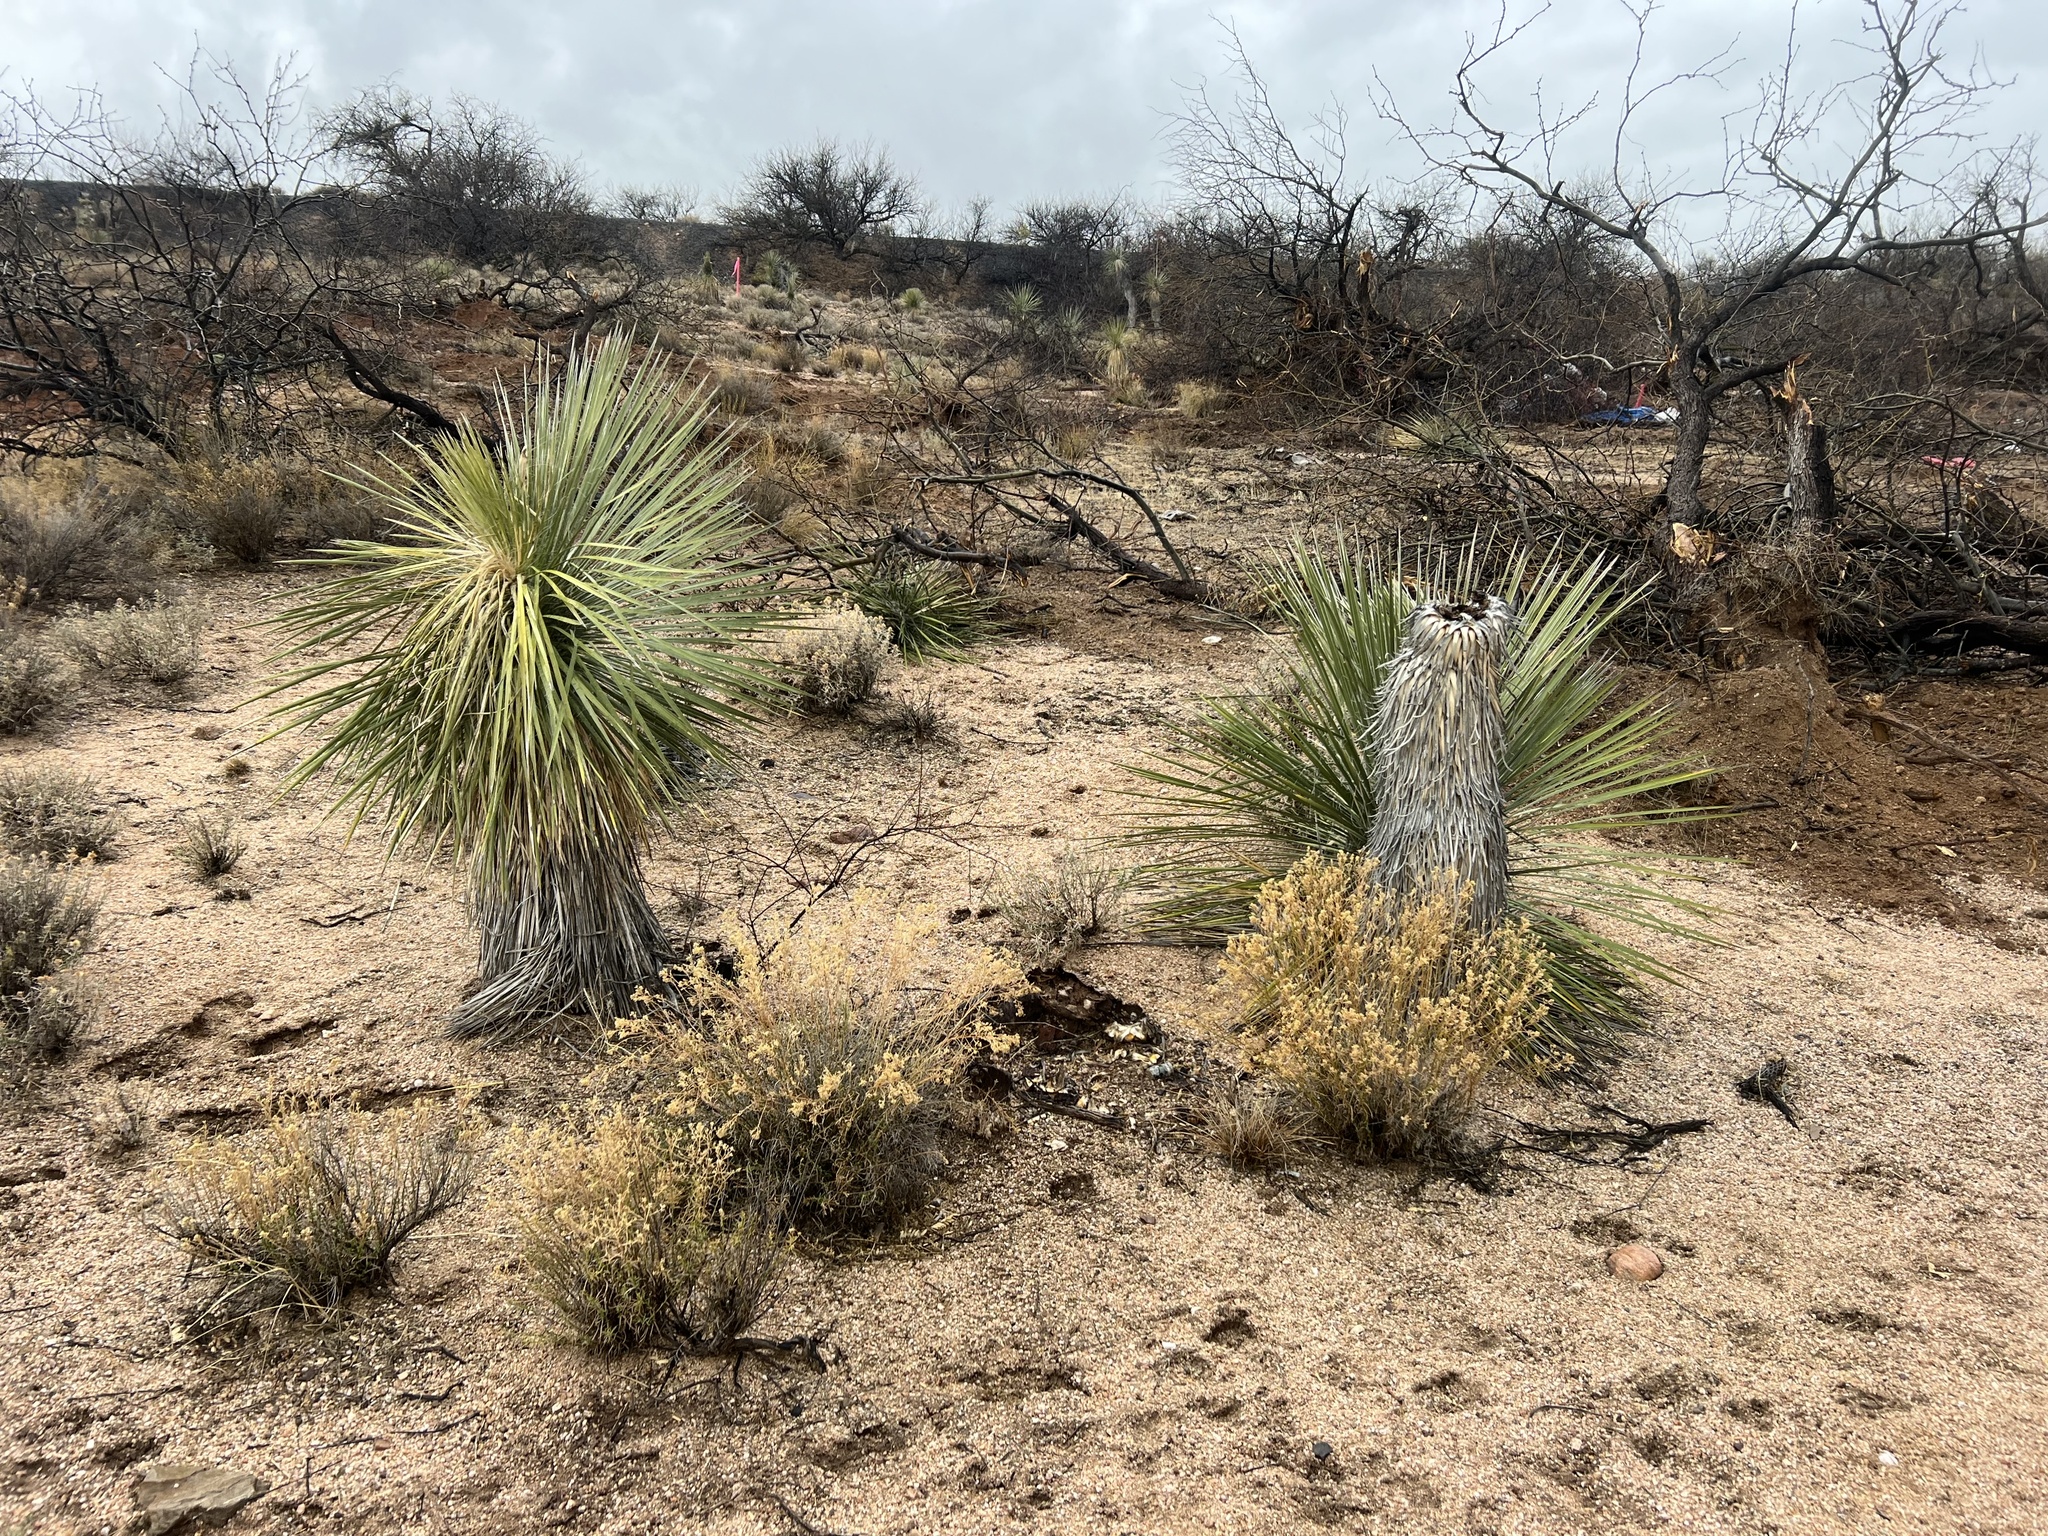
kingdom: Plantae
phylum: Tracheophyta
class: Liliopsida
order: Asparagales
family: Asparagaceae
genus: Yucca
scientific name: Yucca elata
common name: Palmella
